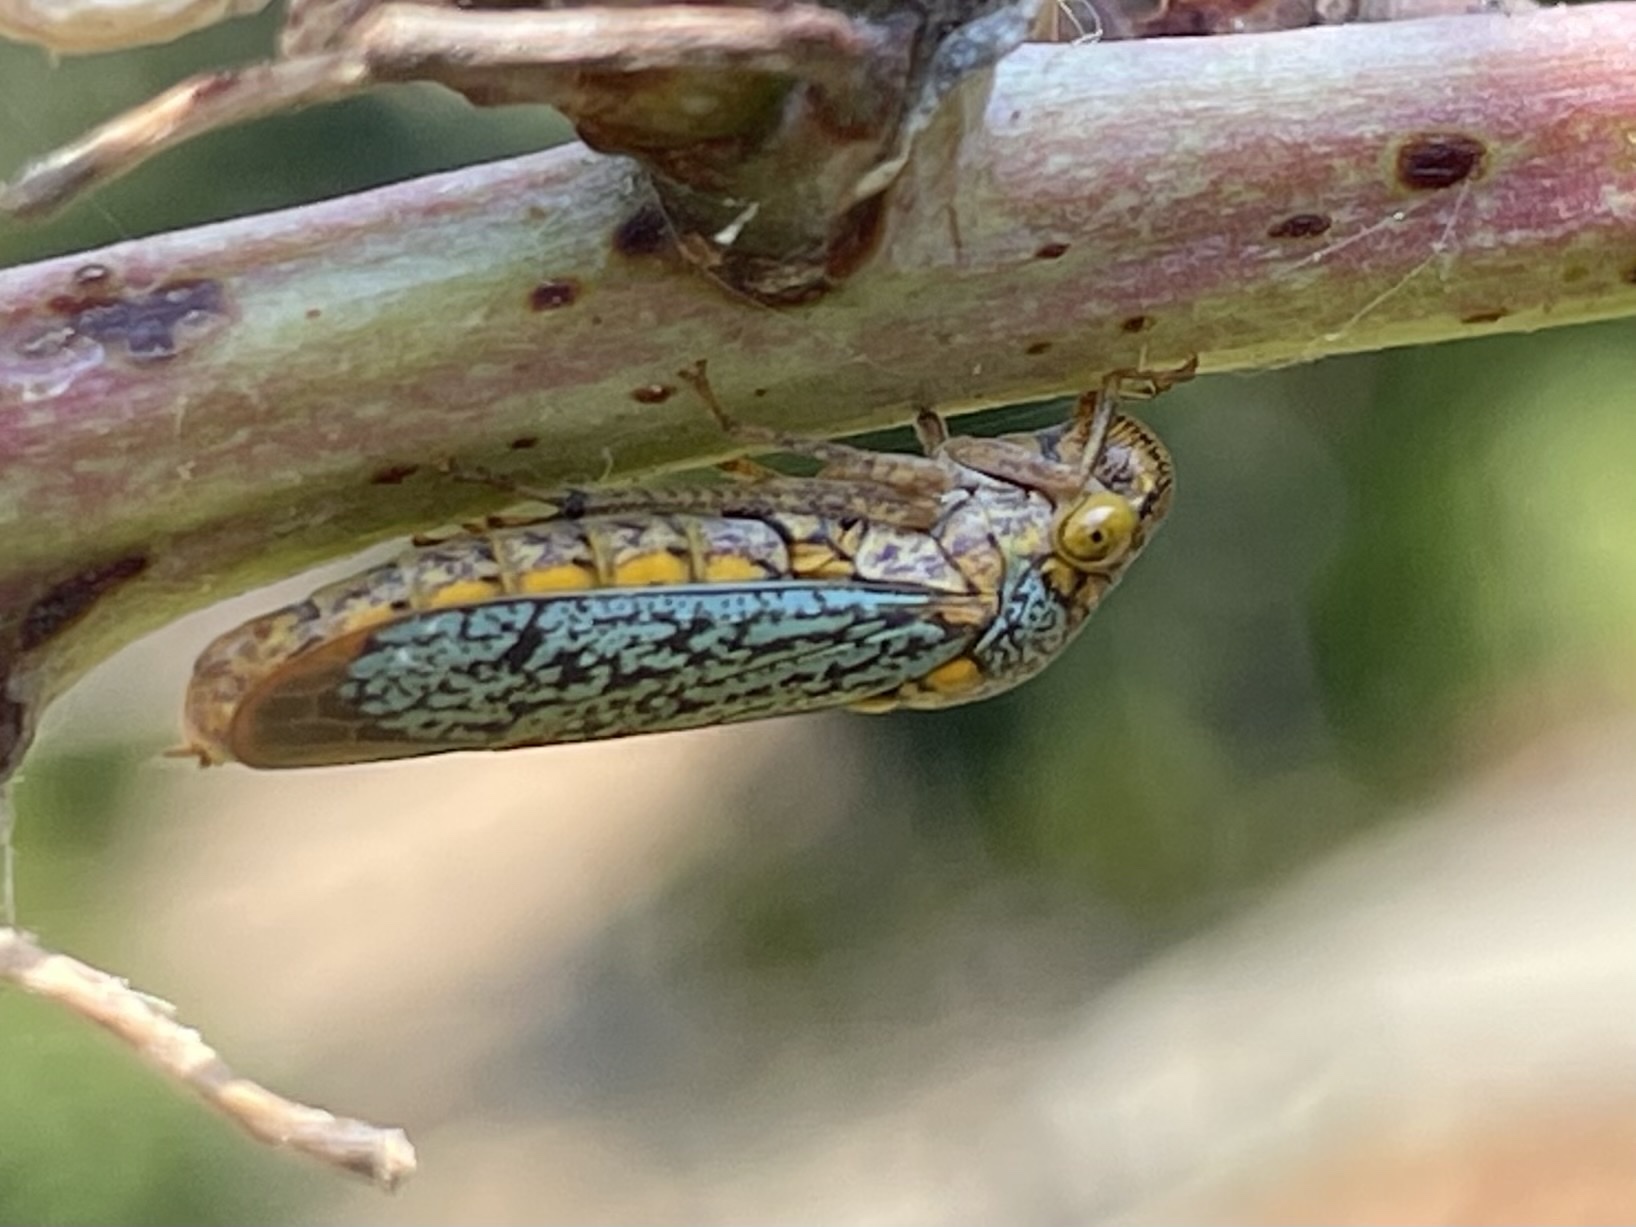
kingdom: Animalia
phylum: Arthropoda
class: Insecta
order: Hemiptera
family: Cicadellidae
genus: Oncometopia
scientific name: Oncometopia orbona
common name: Broad-headed sharpshooter
